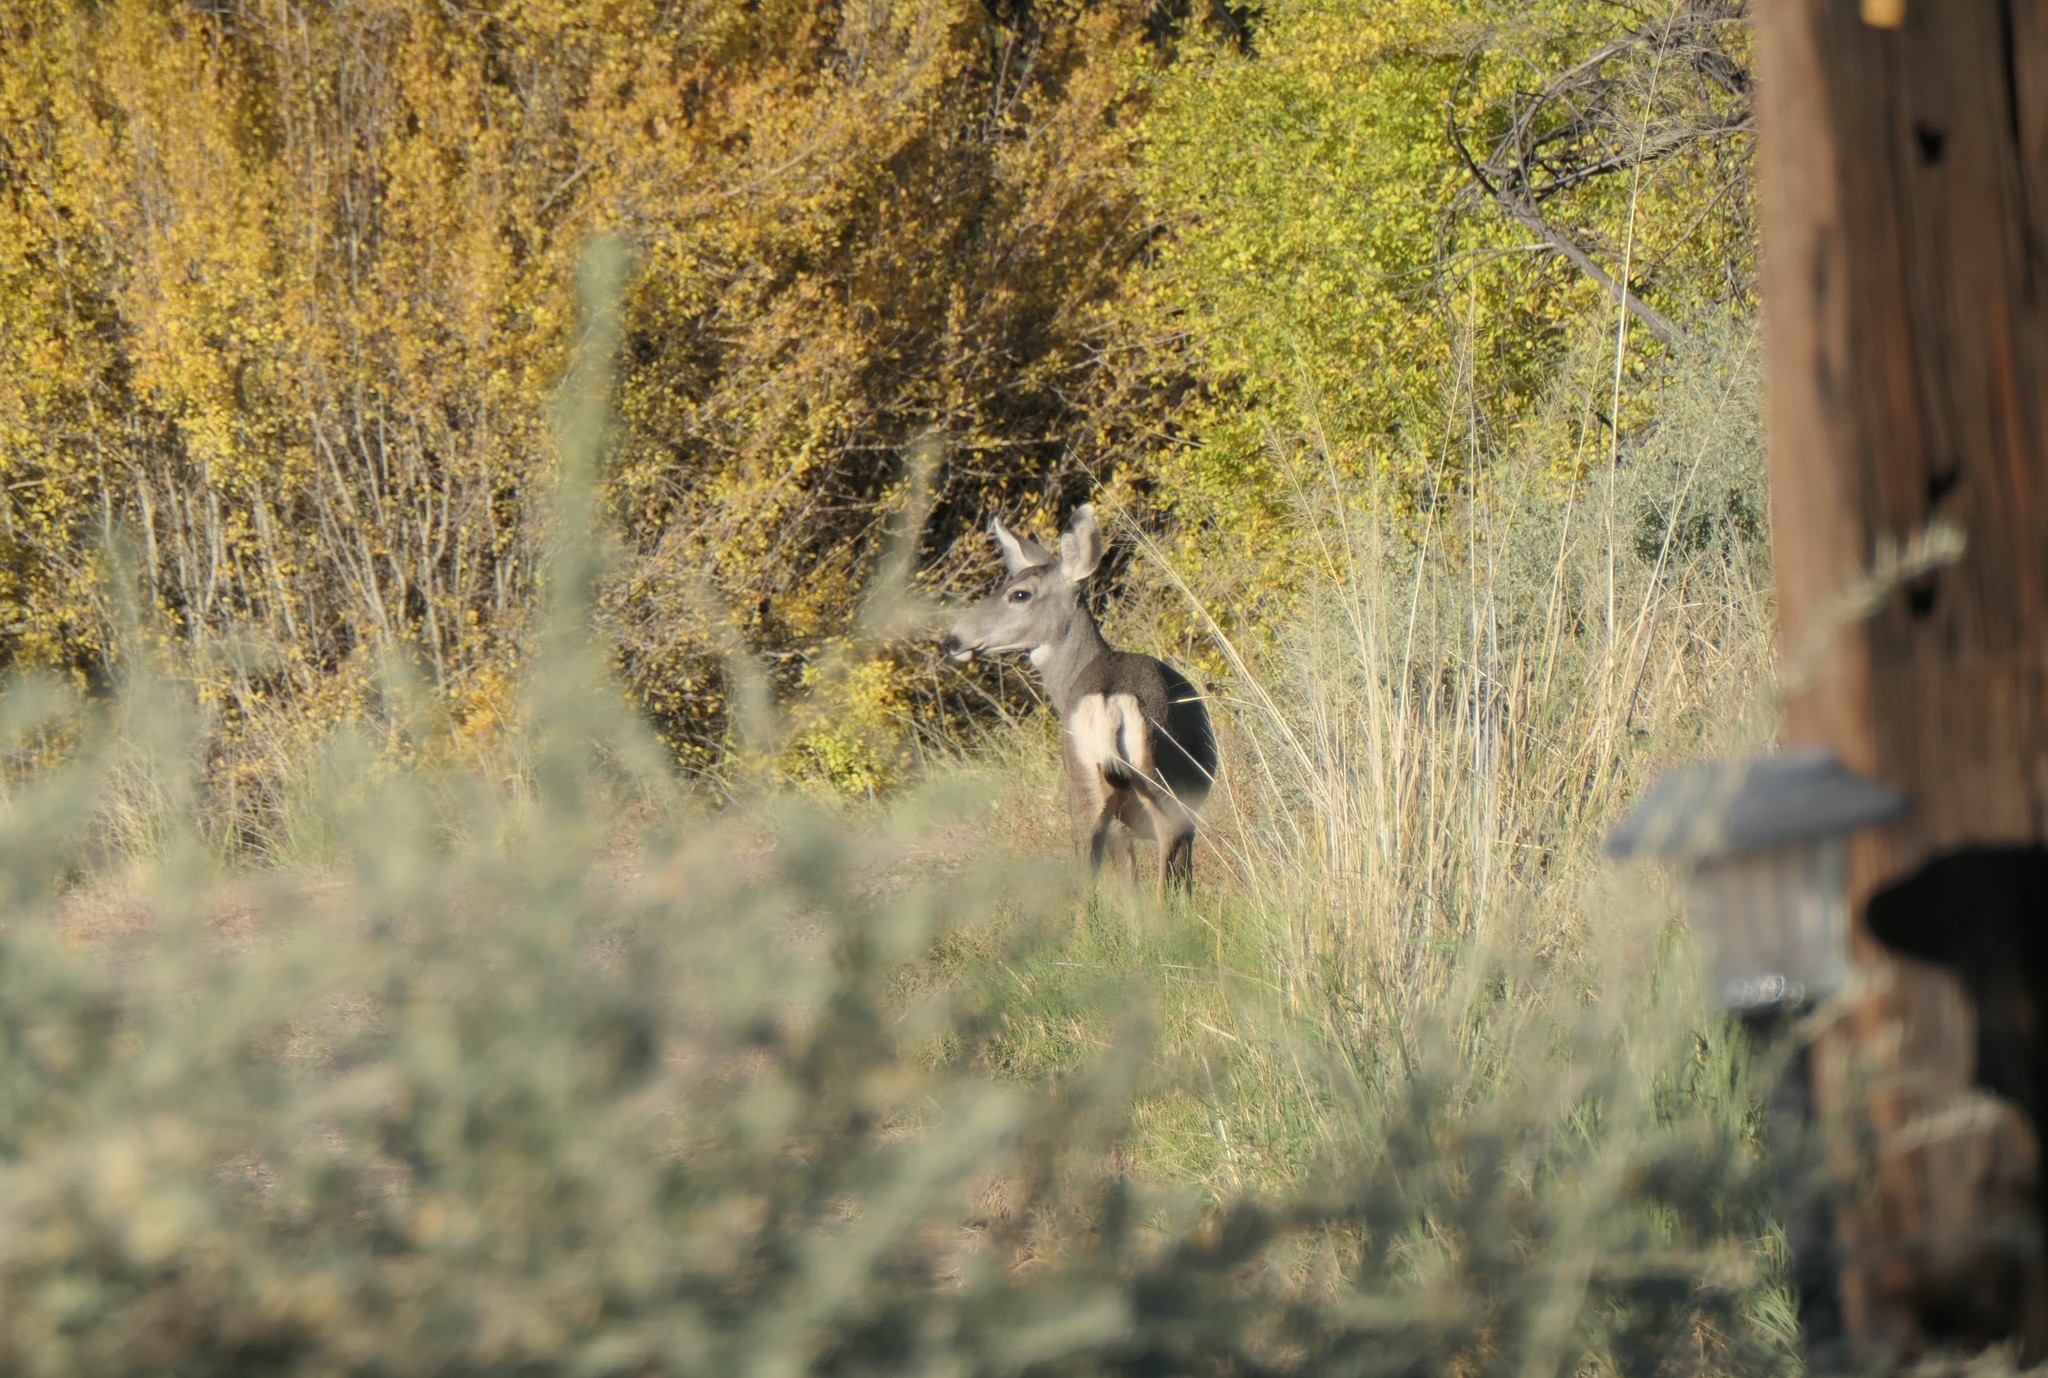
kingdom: Animalia
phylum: Chordata
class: Mammalia
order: Artiodactyla
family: Cervidae
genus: Odocoileus
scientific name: Odocoileus hemionus
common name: Mule deer
